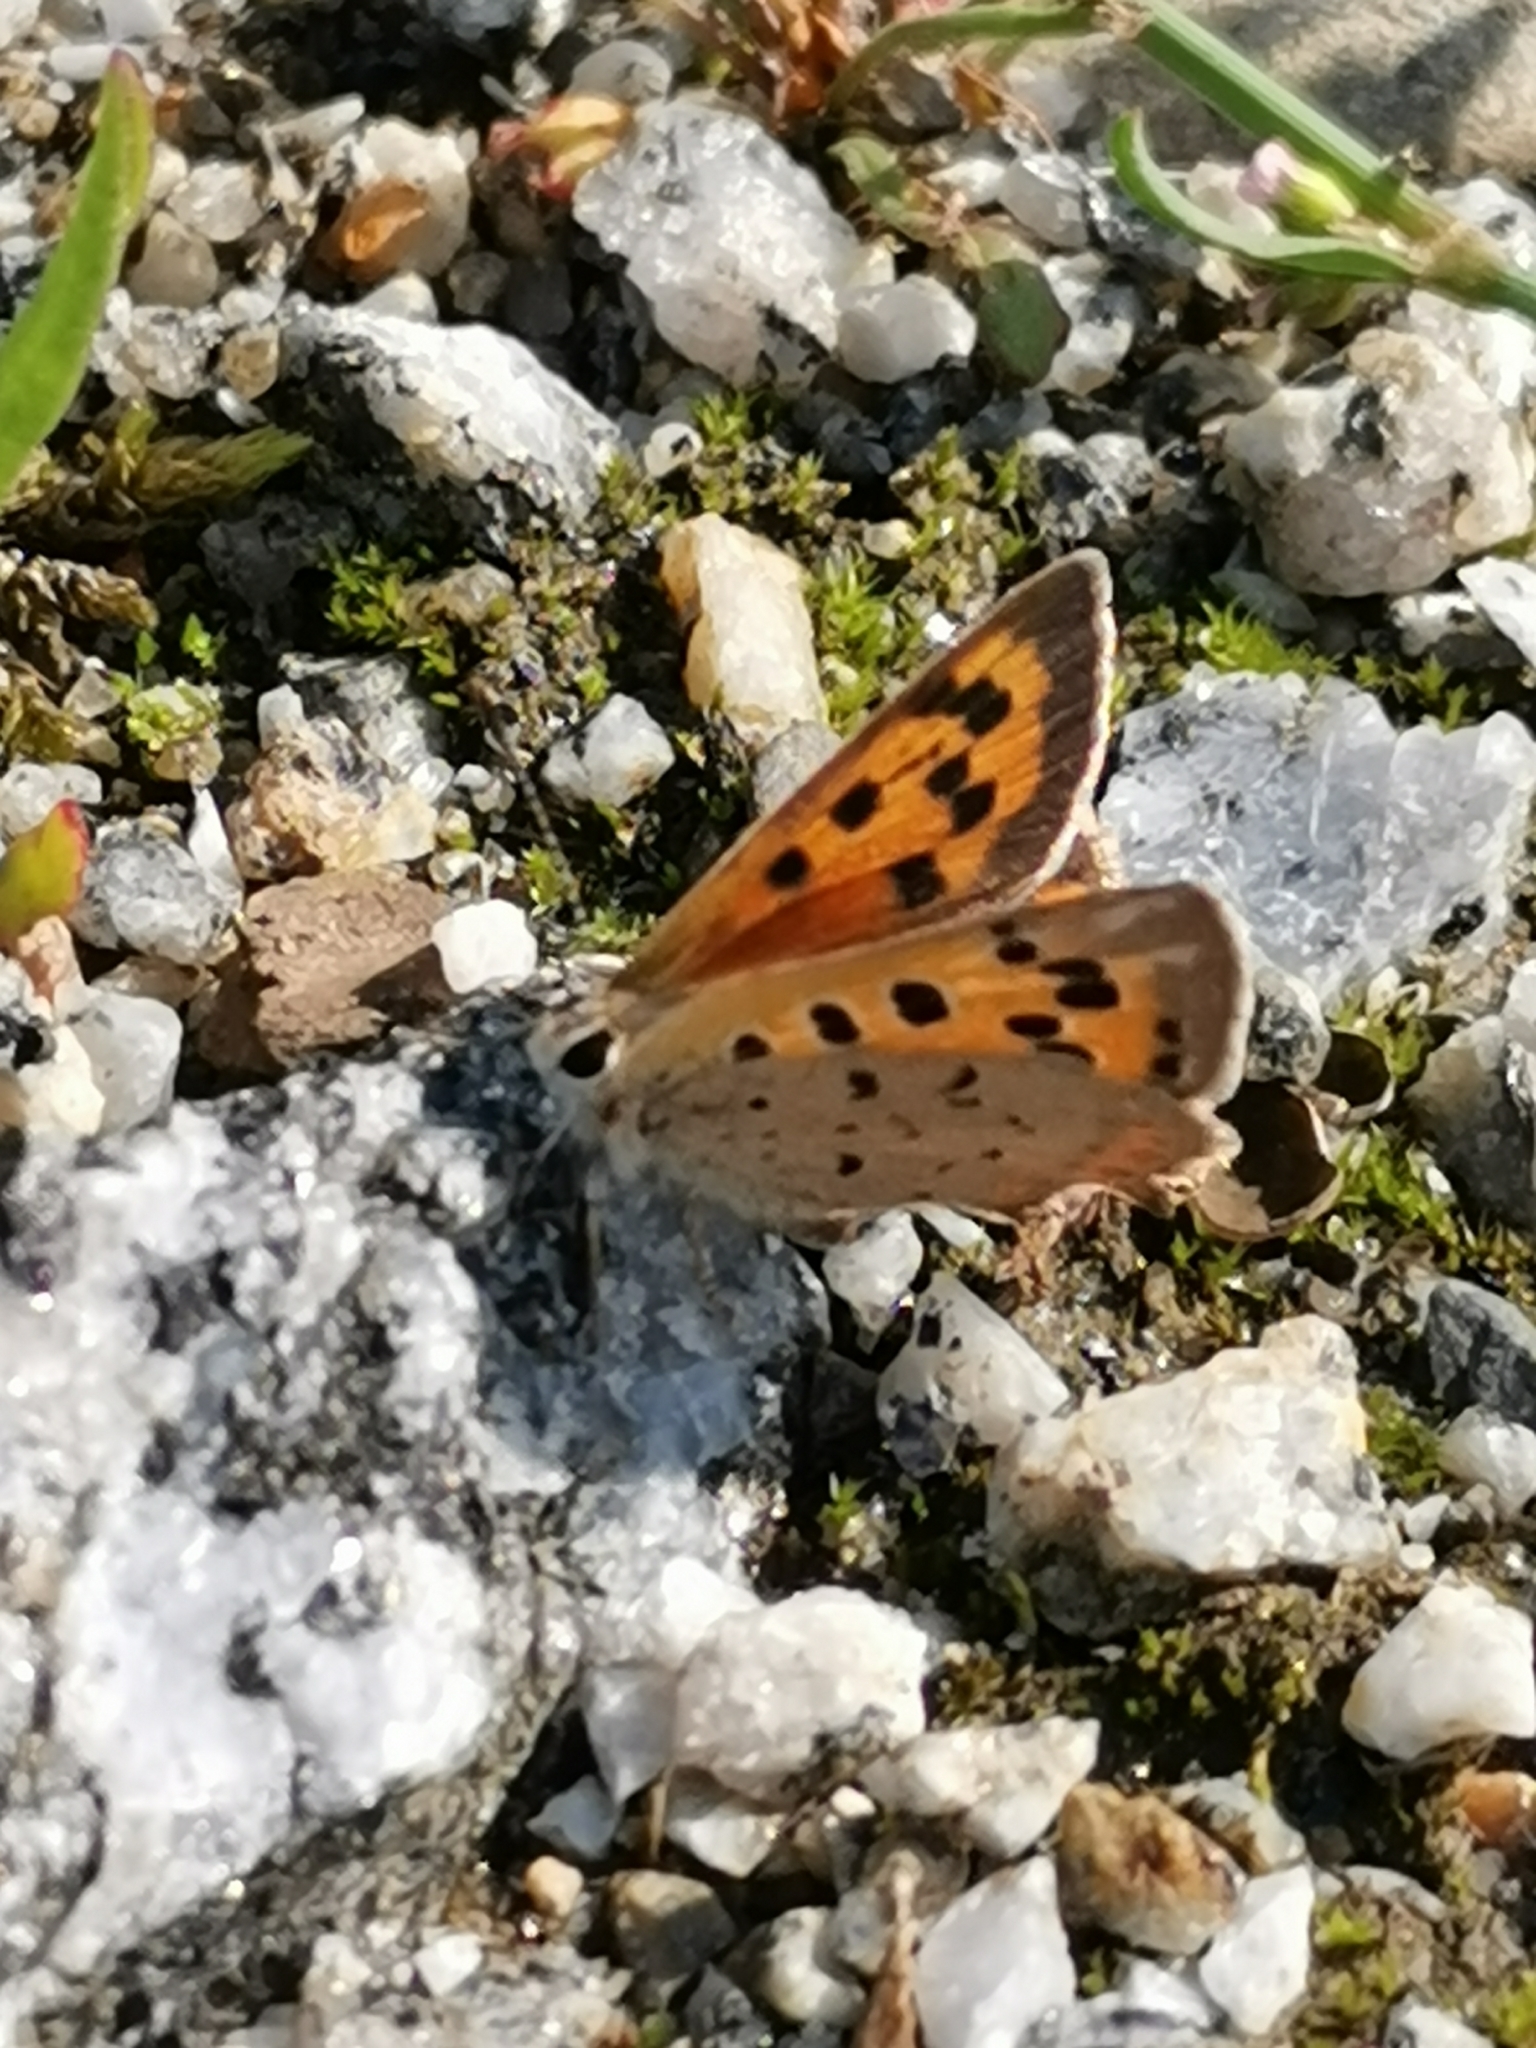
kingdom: Animalia
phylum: Arthropoda
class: Insecta
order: Lepidoptera
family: Lycaenidae
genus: Lycaena
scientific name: Lycaena phlaeas
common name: Small copper
